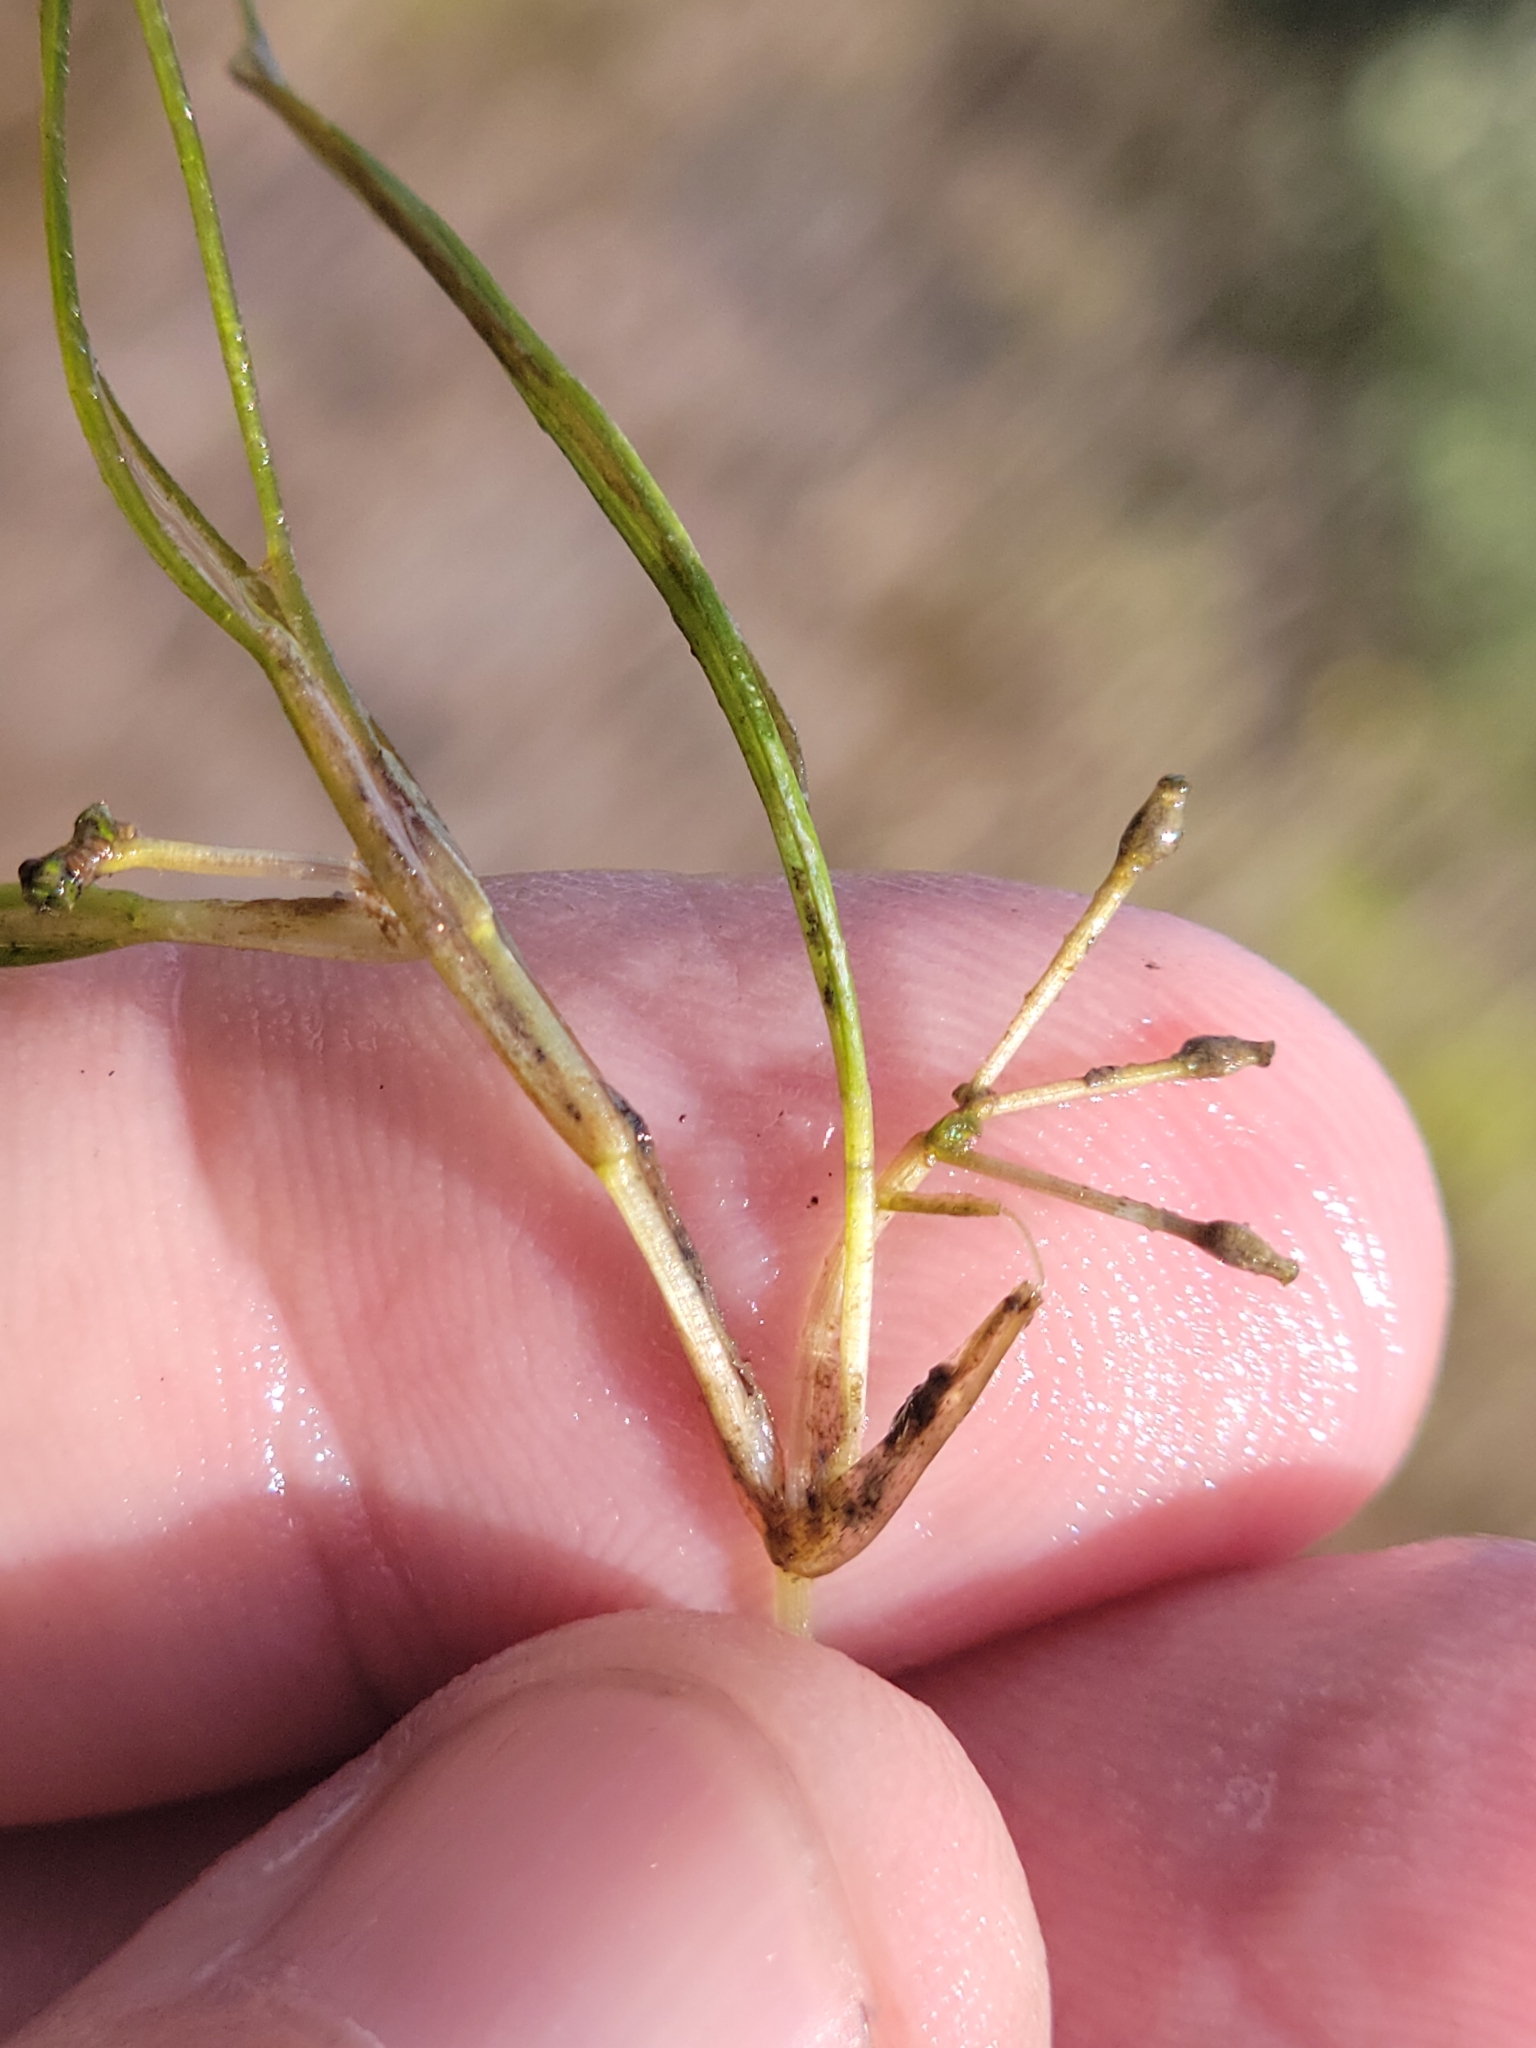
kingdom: Plantae
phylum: Tracheophyta
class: Liliopsida
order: Alismatales
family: Ruppiaceae
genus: Ruppia
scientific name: Ruppia maritima
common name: Beaked tasselweed
